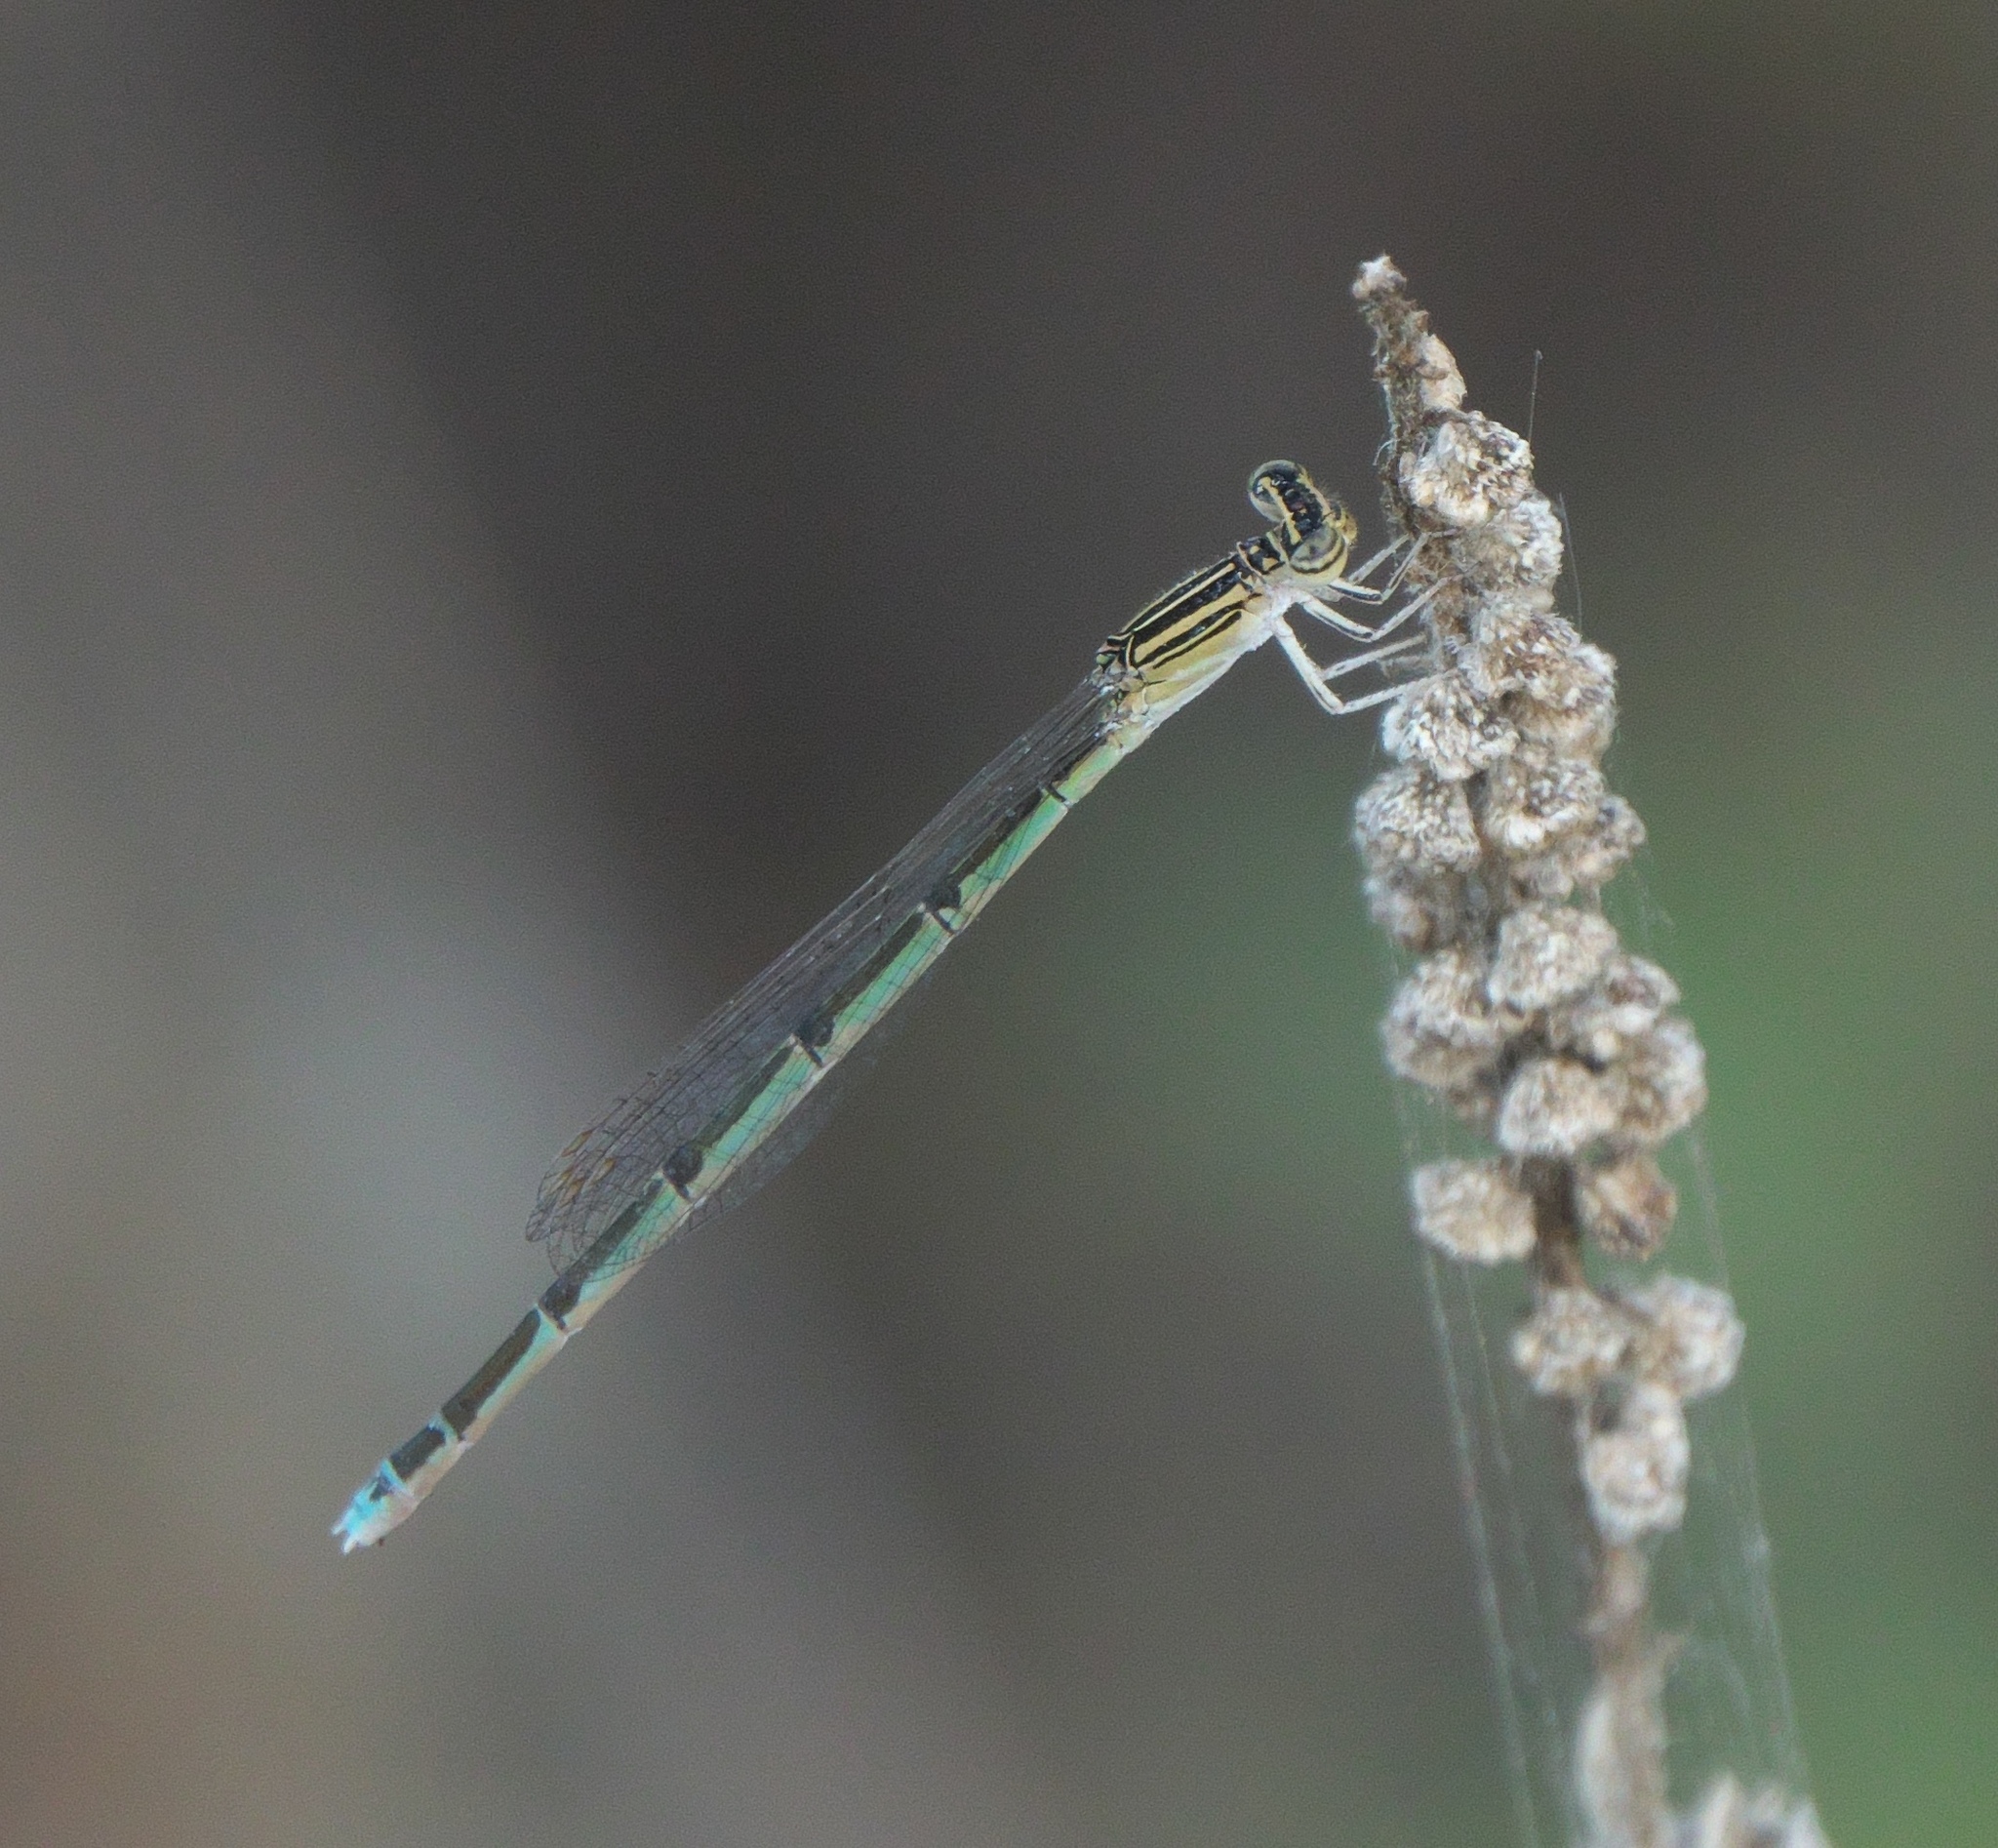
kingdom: Animalia
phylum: Arthropoda
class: Insecta
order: Odonata
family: Coenagrionidae
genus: Enallagma
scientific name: Enallagma basidens
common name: Double-striped bluet
